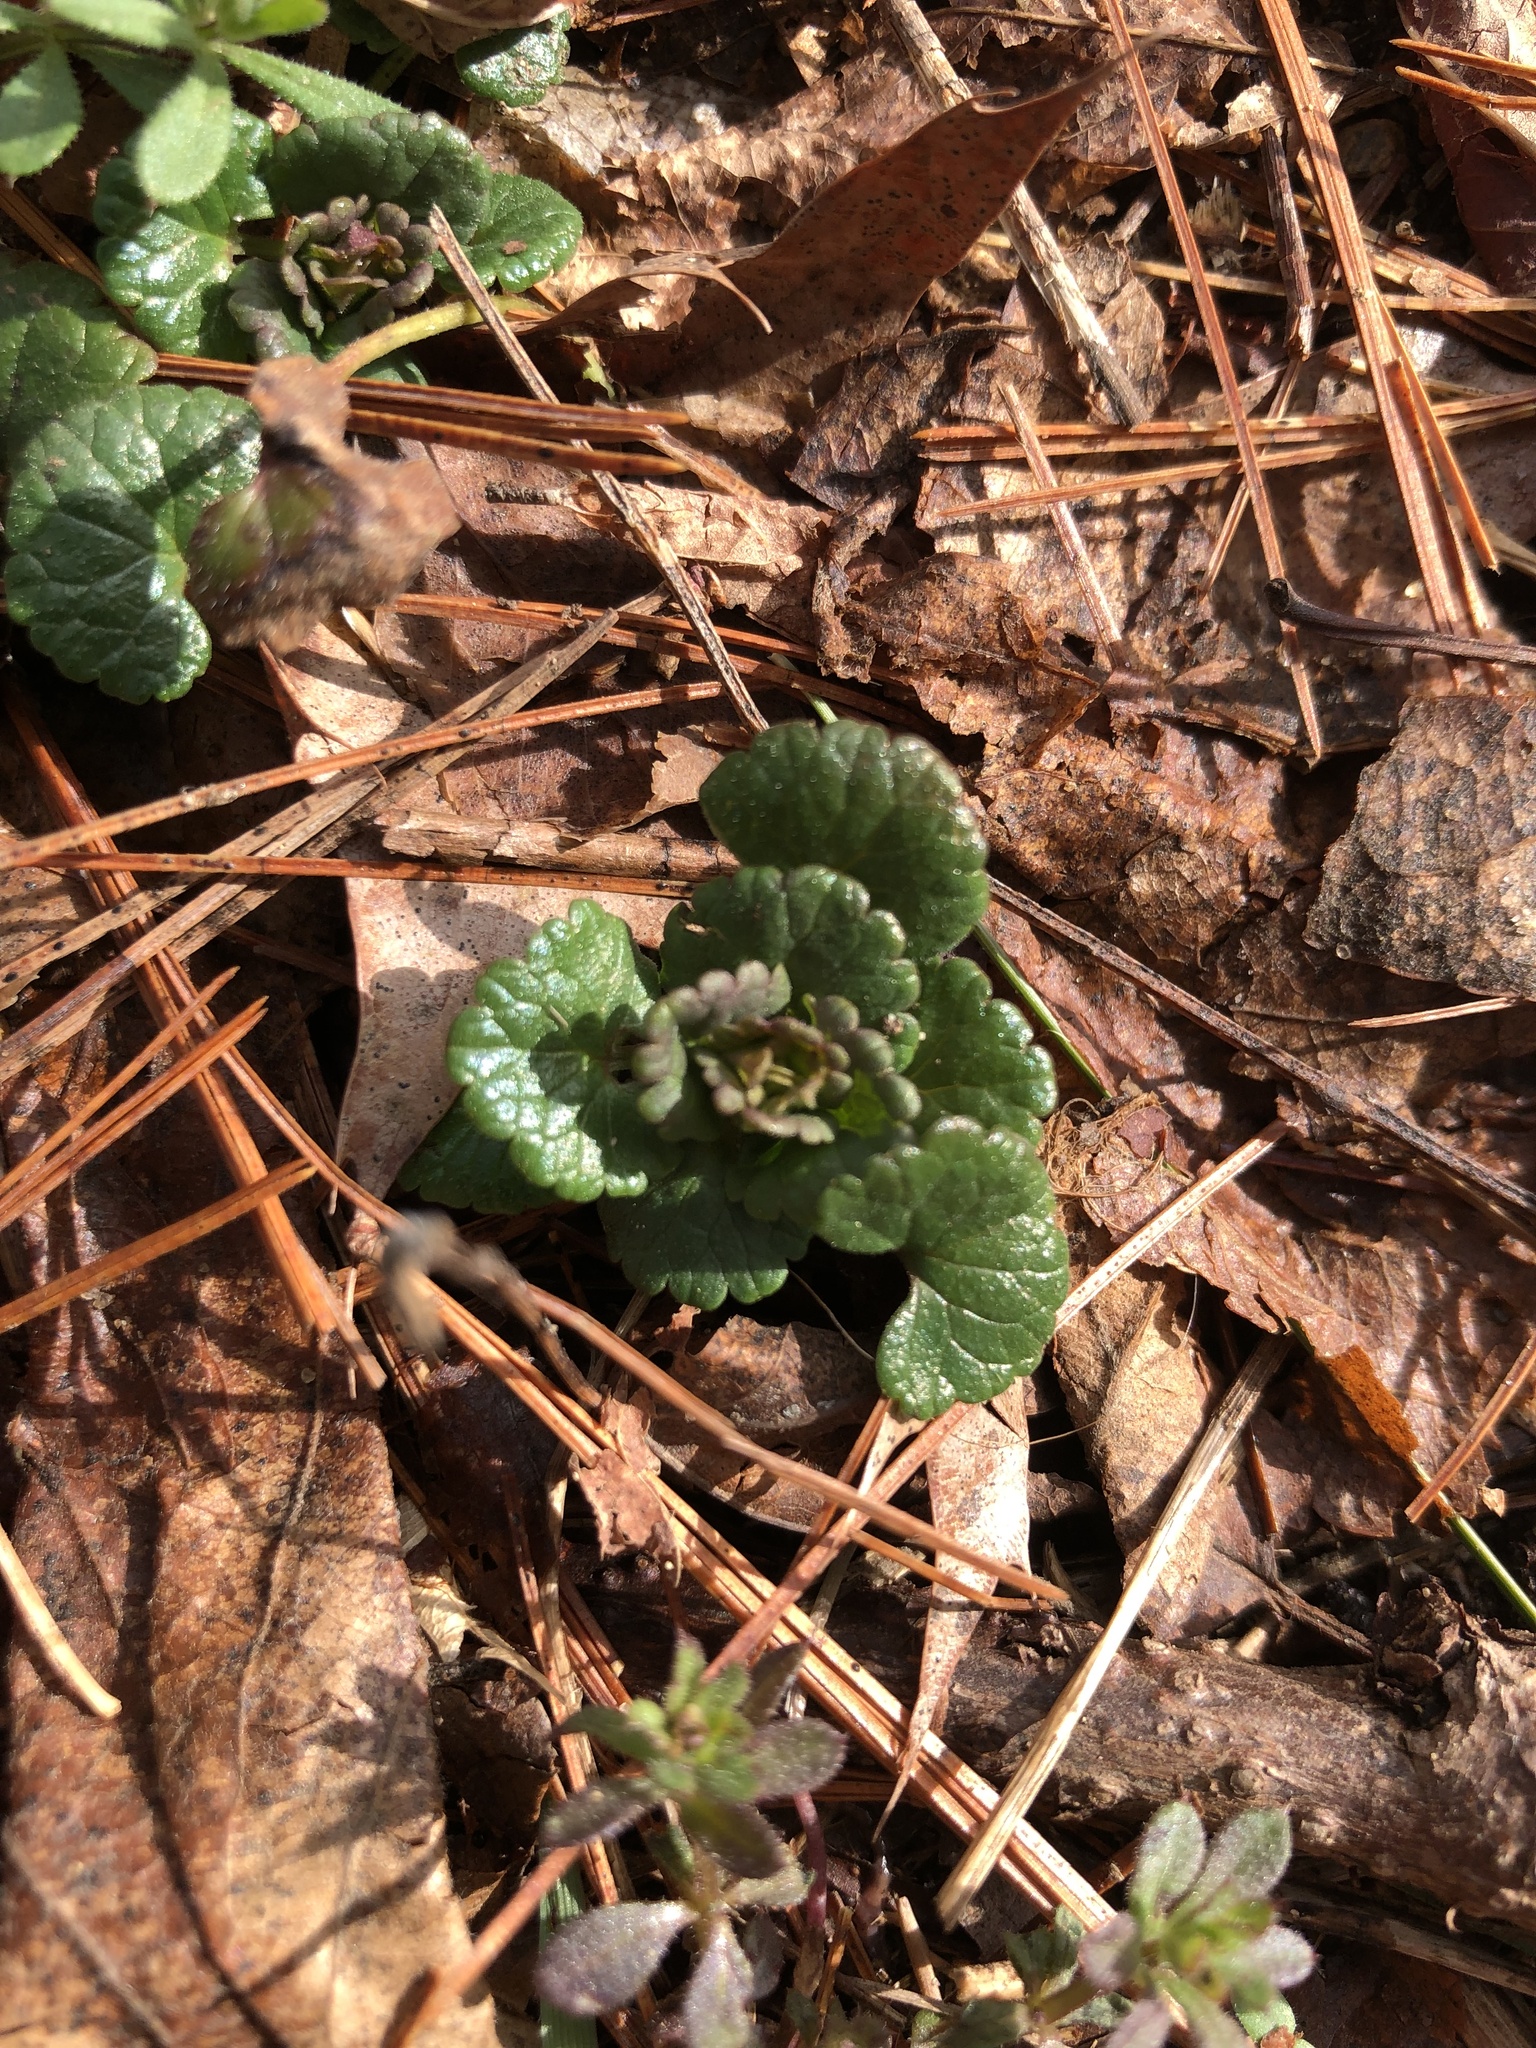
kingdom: Plantae
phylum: Tracheophyta
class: Magnoliopsida
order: Lamiales
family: Lamiaceae
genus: Glechoma
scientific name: Glechoma hederacea
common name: Ground ivy
